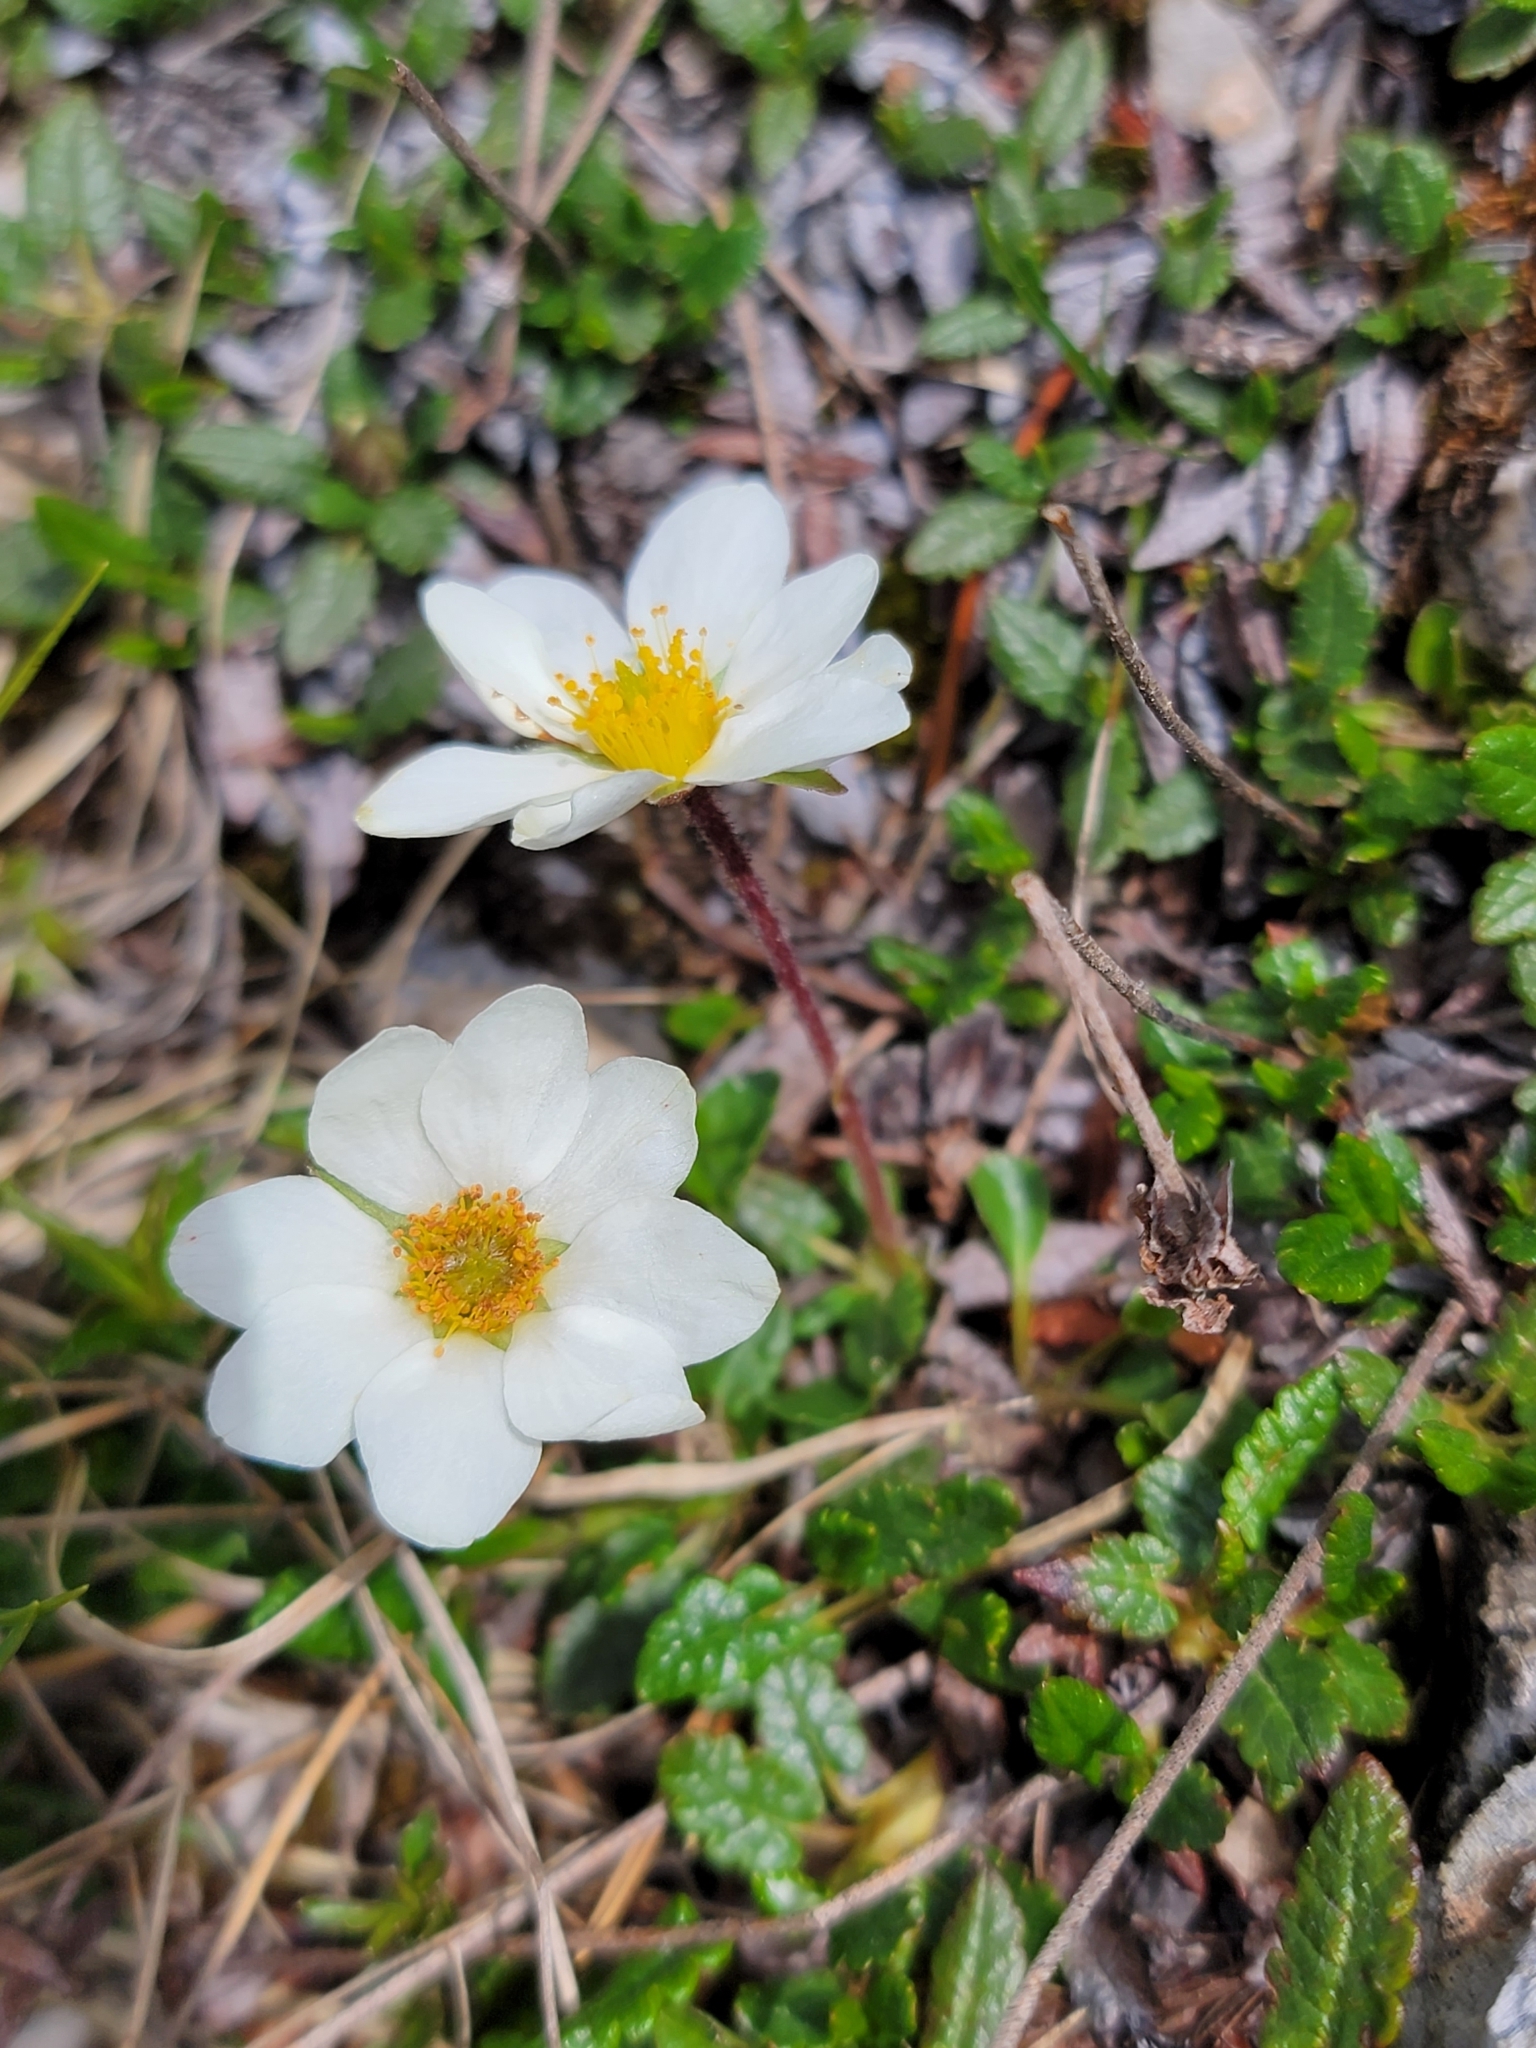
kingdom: Plantae
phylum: Tracheophyta
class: Magnoliopsida
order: Rosales
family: Rosaceae
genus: Dryas
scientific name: Dryas octopetala
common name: Eight-petal mountain-avens
